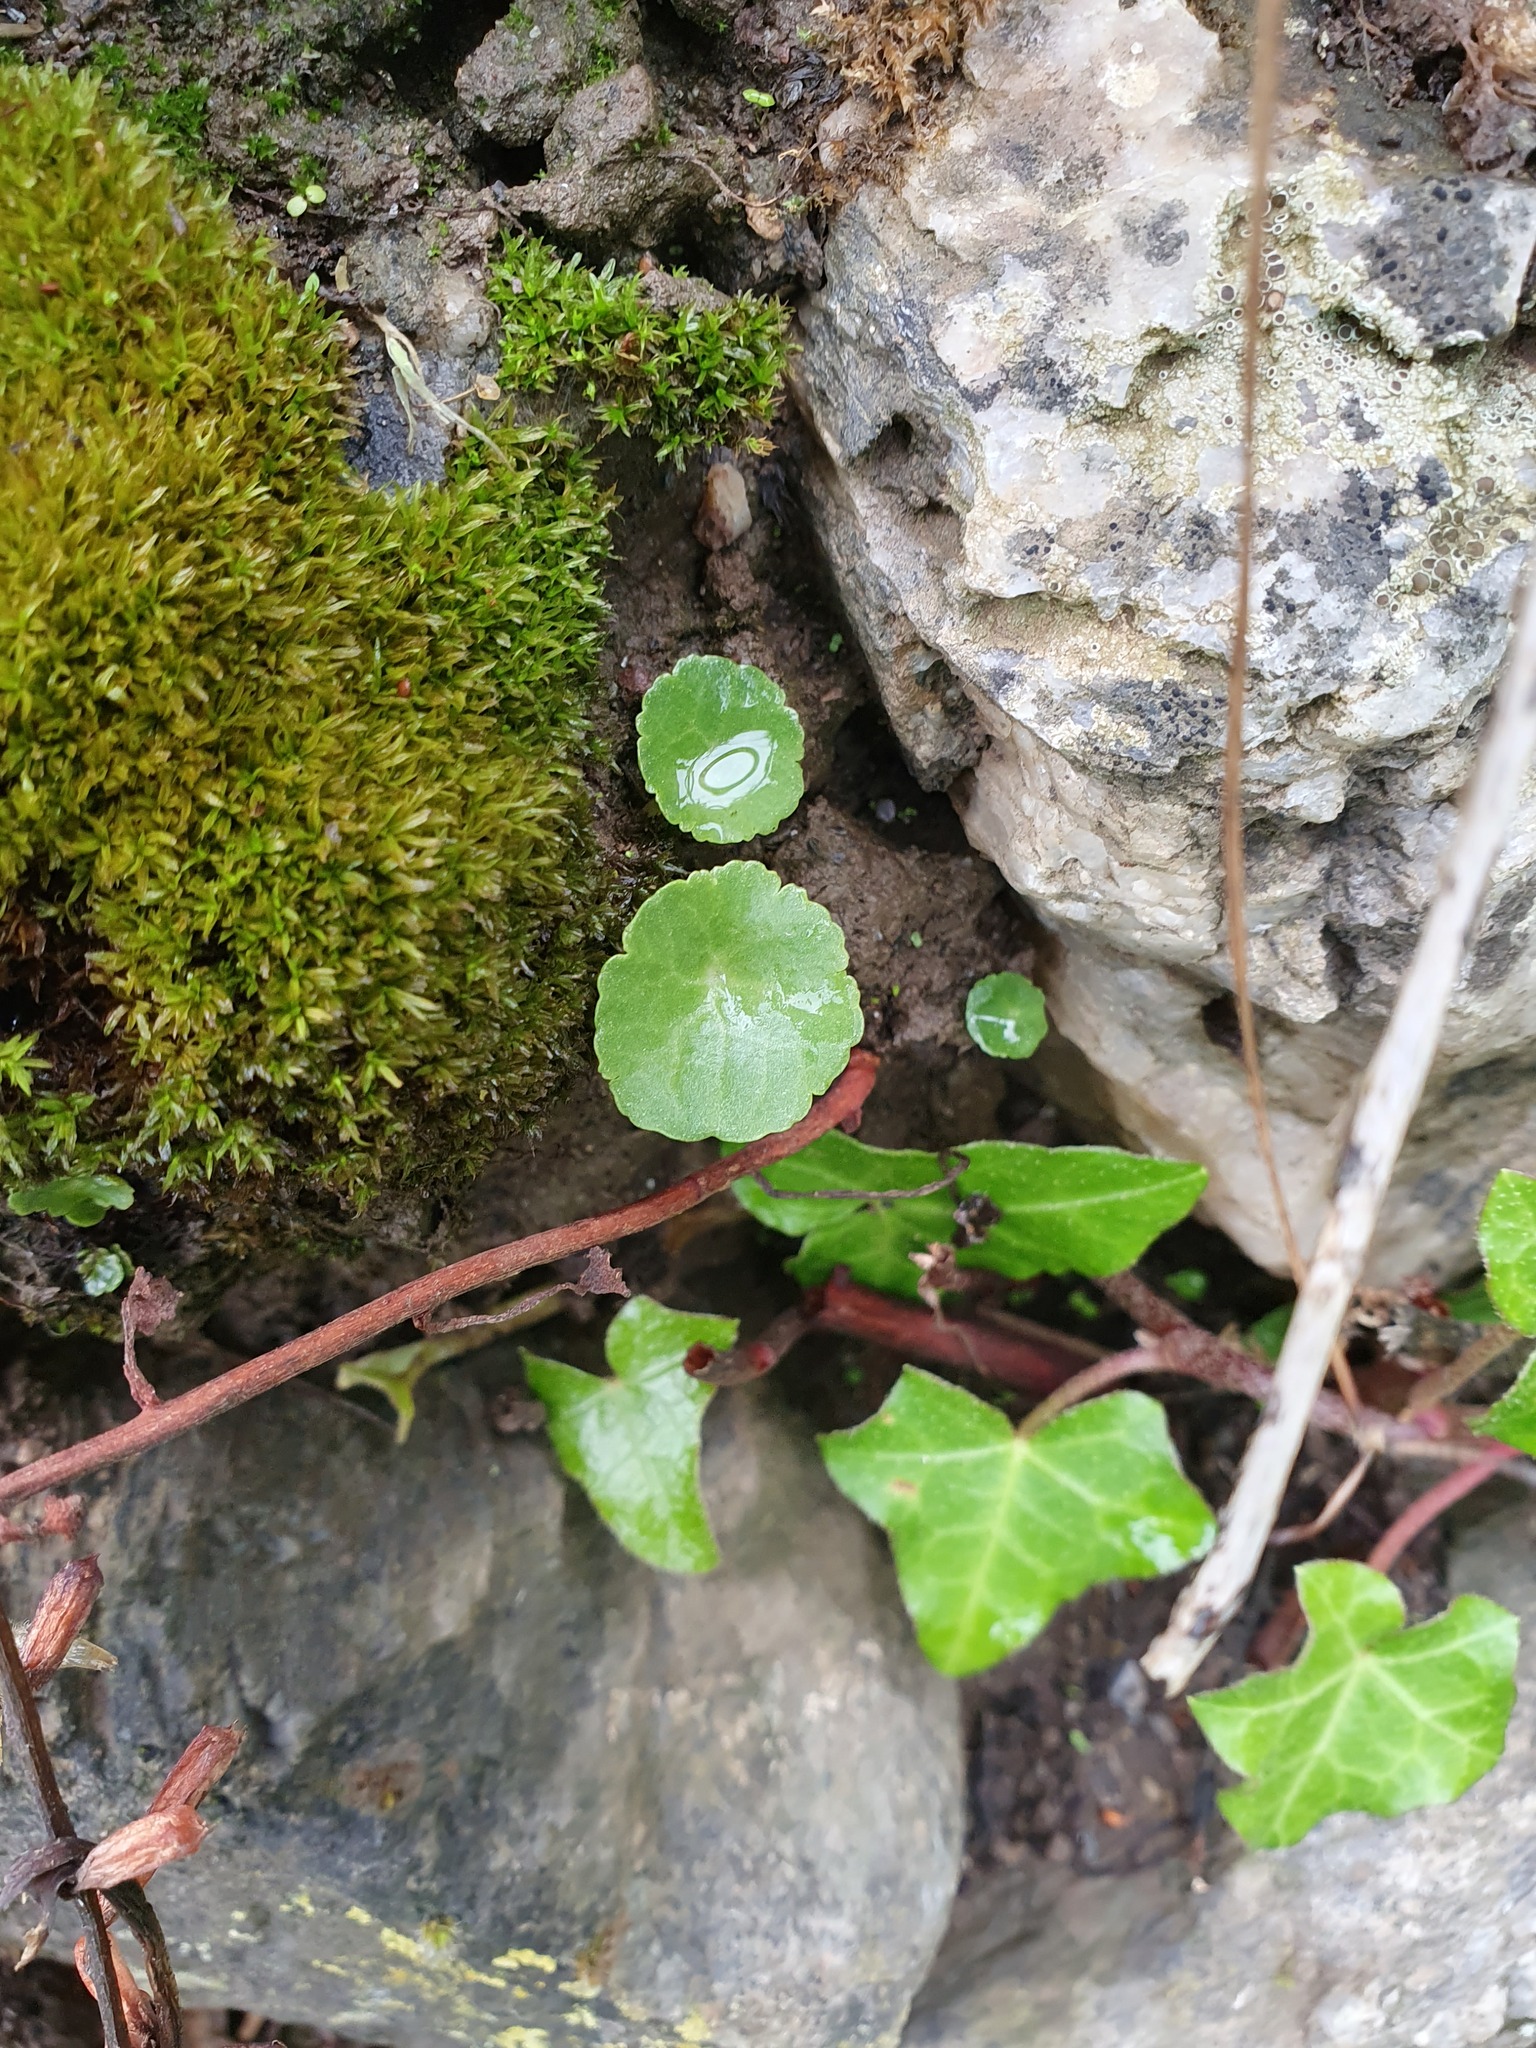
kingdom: Plantae
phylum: Tracheophyta
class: Magnoliopsida
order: Saxifragales
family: Crassulaceae
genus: Umbilicus
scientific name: Umbilicus rupestris
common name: Navelwort
